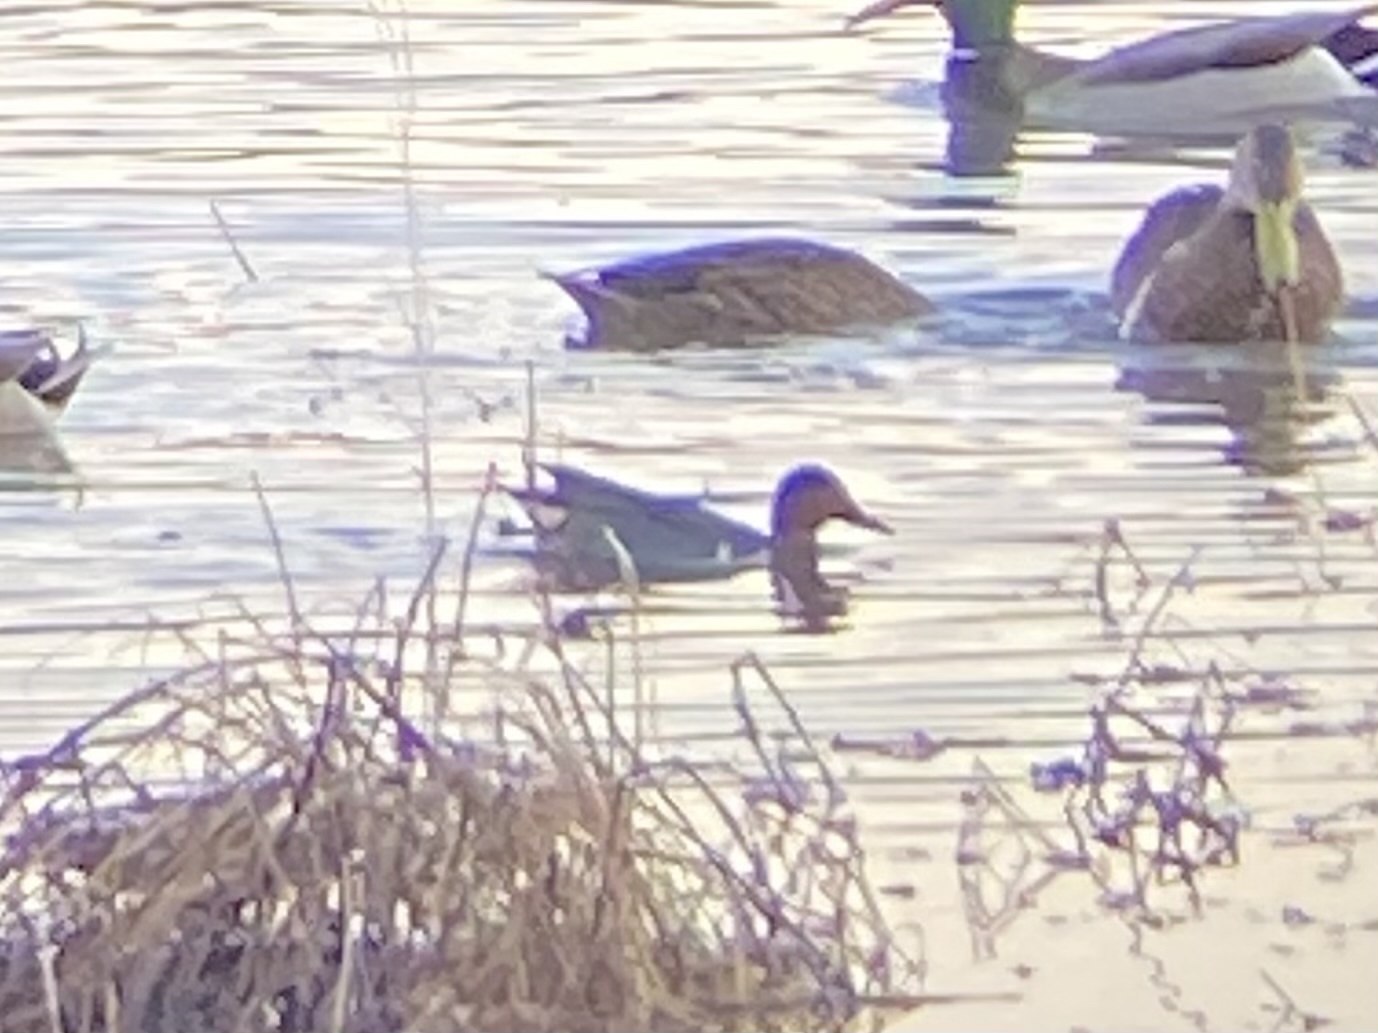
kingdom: Animalia
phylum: Chordata
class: Aves
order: Anseriformes
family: Anatidae
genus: Anas
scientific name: Anas carolinensis
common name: Green-winged teal
